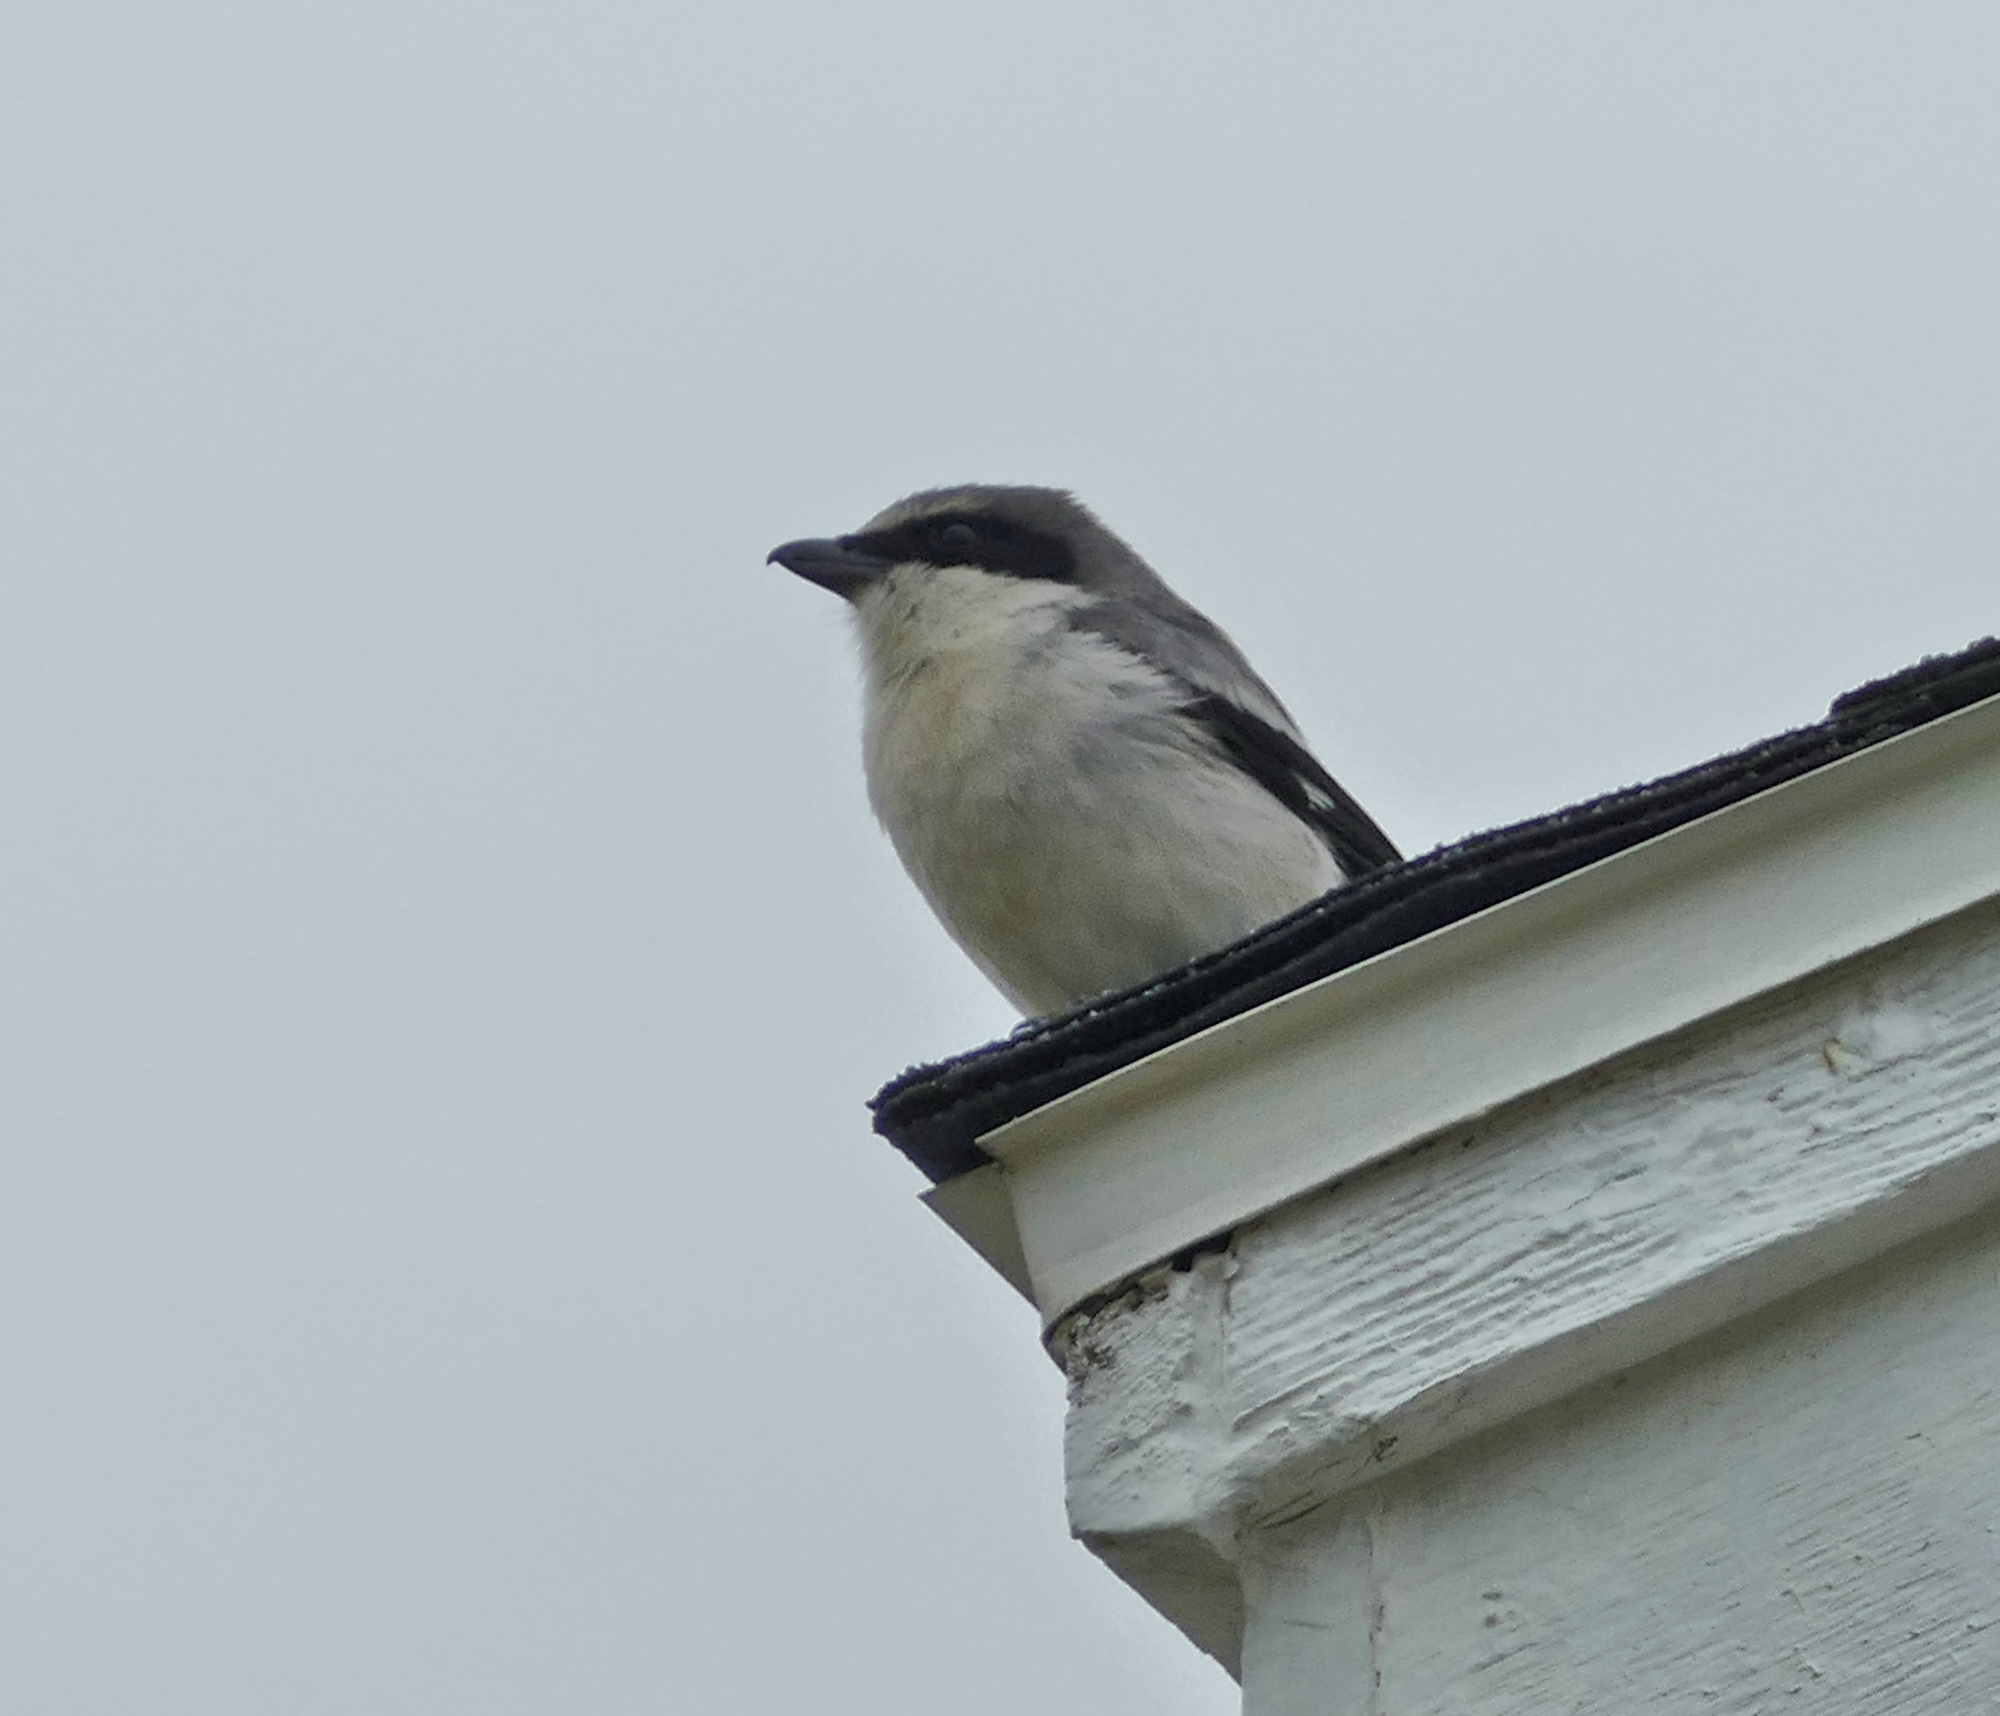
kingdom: Animalia
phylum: Chordata
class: Aves
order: Passeriformes
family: Laniidae
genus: Lanius
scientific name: Lanius ludovicianus
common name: Loggerhead shrike
